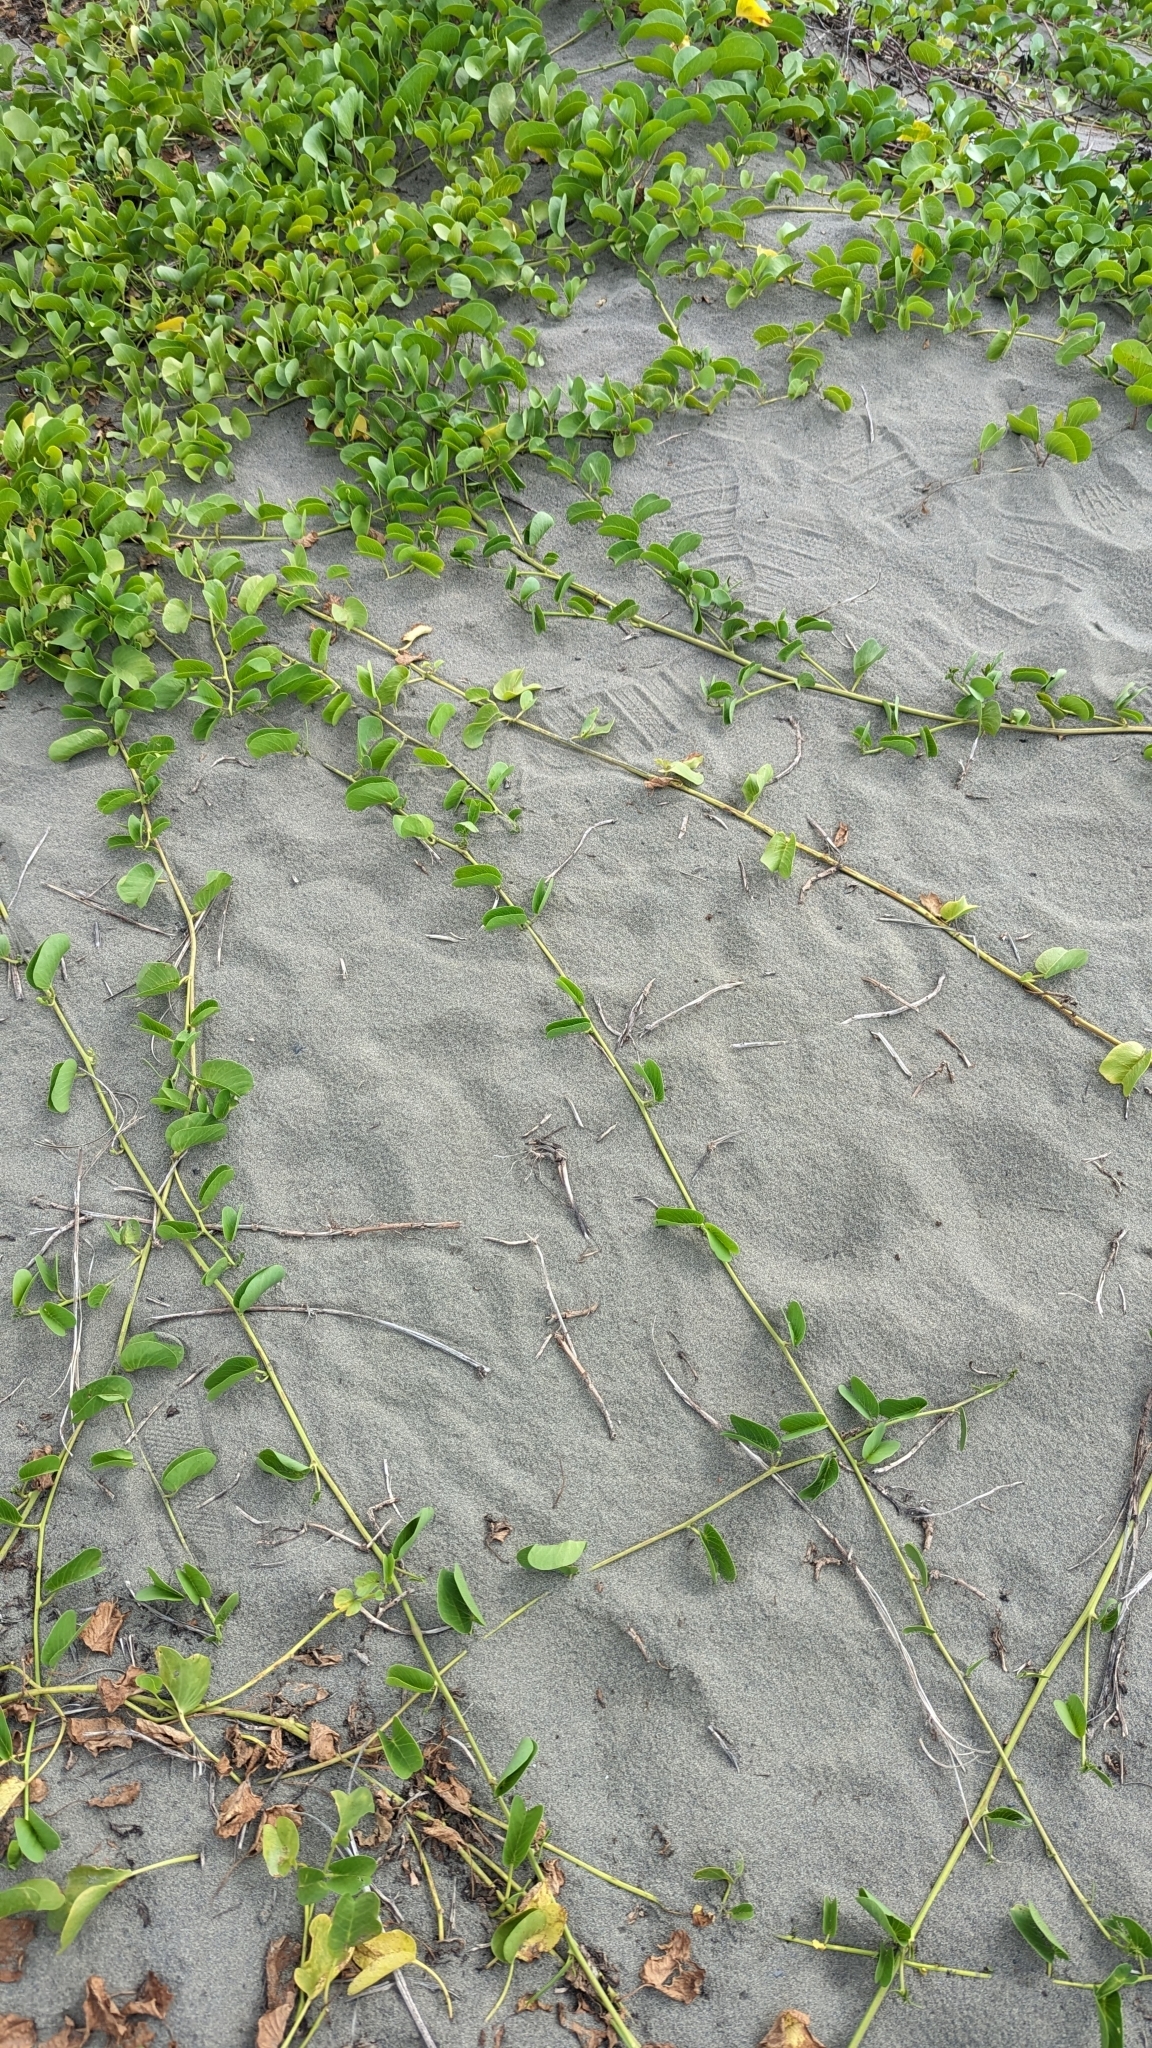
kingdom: Plantae
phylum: Tracheophyta
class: Magnoliopsida
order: Solanales
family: Convolvulaceae
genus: Ipomoea
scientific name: Ipomoea pes-caprae
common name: Beach morning glory
